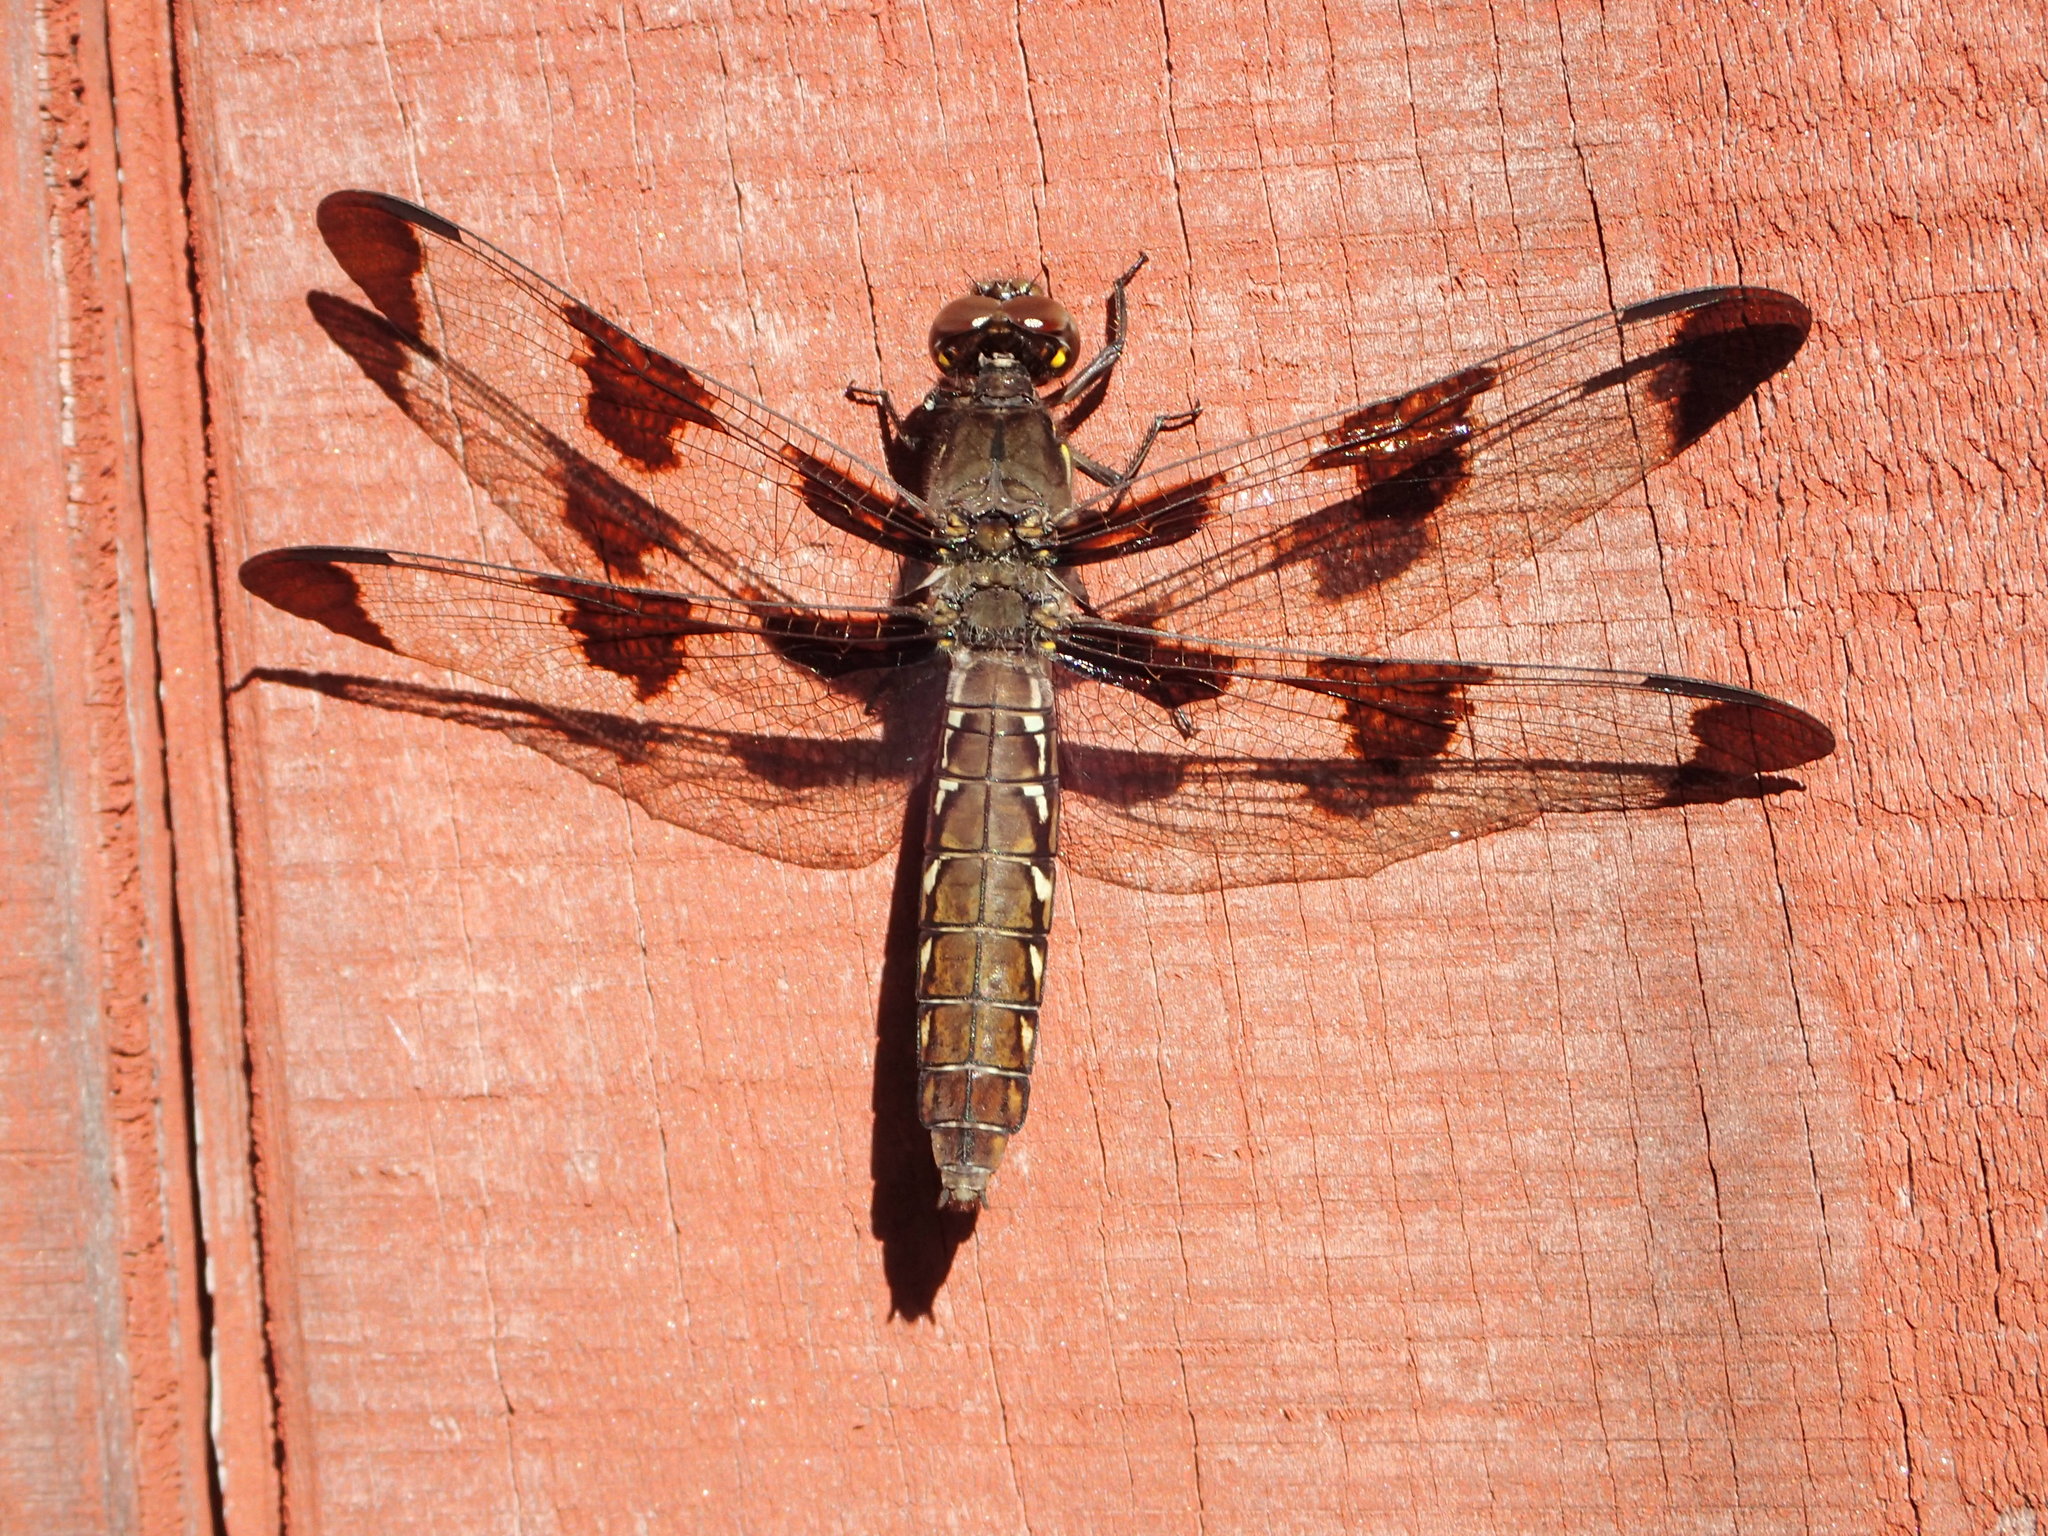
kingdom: Animalia
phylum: Arthropoda
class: Insecta
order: Odonata
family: Libellulidae
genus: Plathemis
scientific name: Plathemis lydia
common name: Common whitetail
